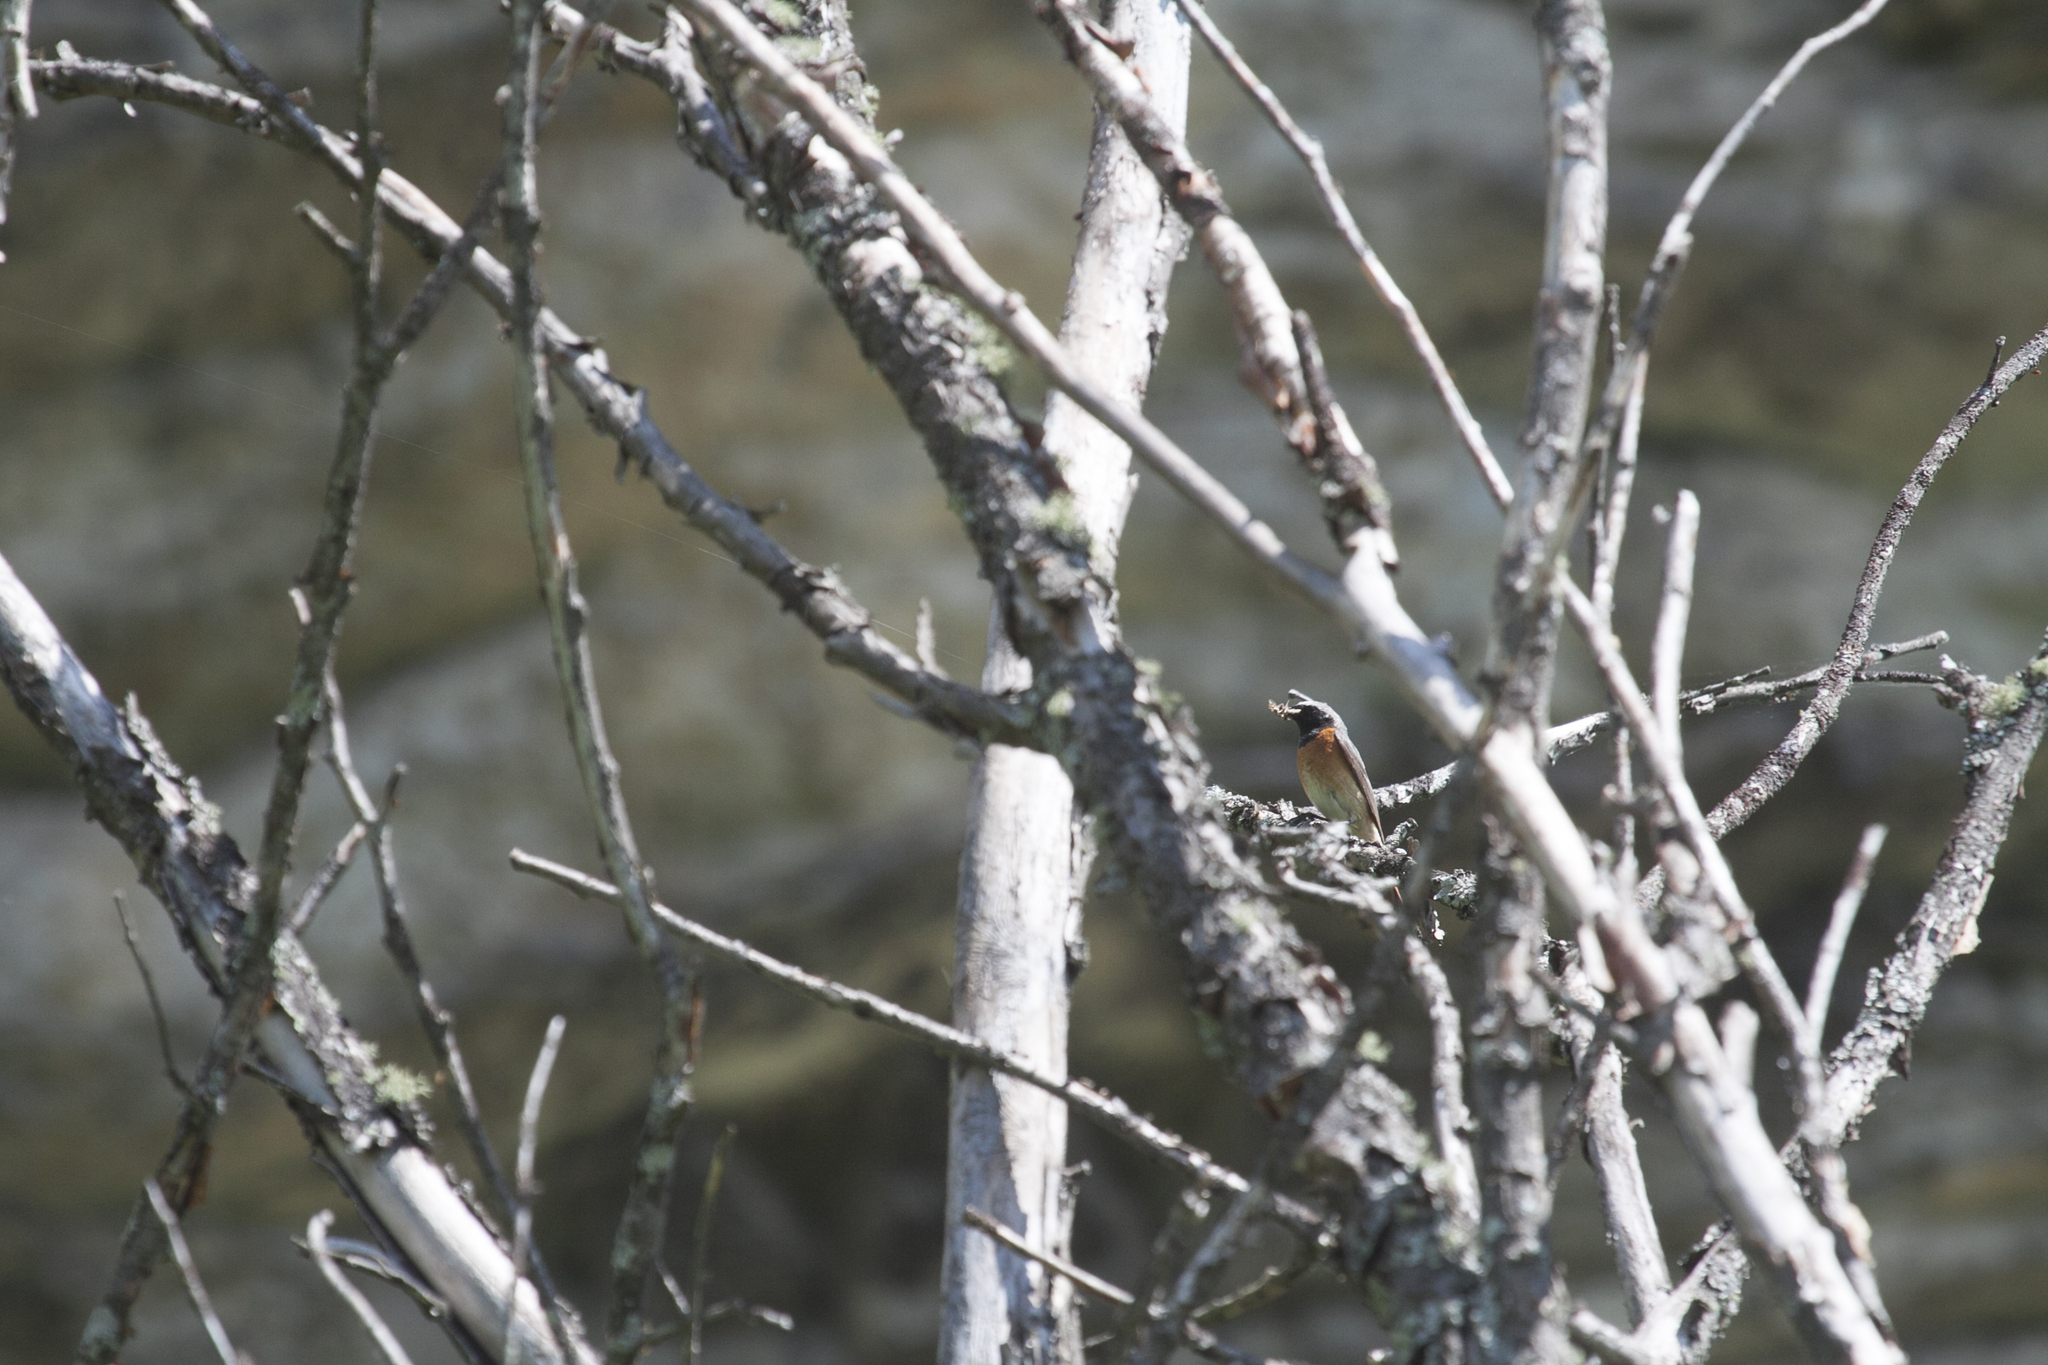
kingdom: Animalia
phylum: Chordata
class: Aves
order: Passeriformes
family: Muscicapidae
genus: Phoenicurus
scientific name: Phoenicurus phoenicurus
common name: Common redstart
